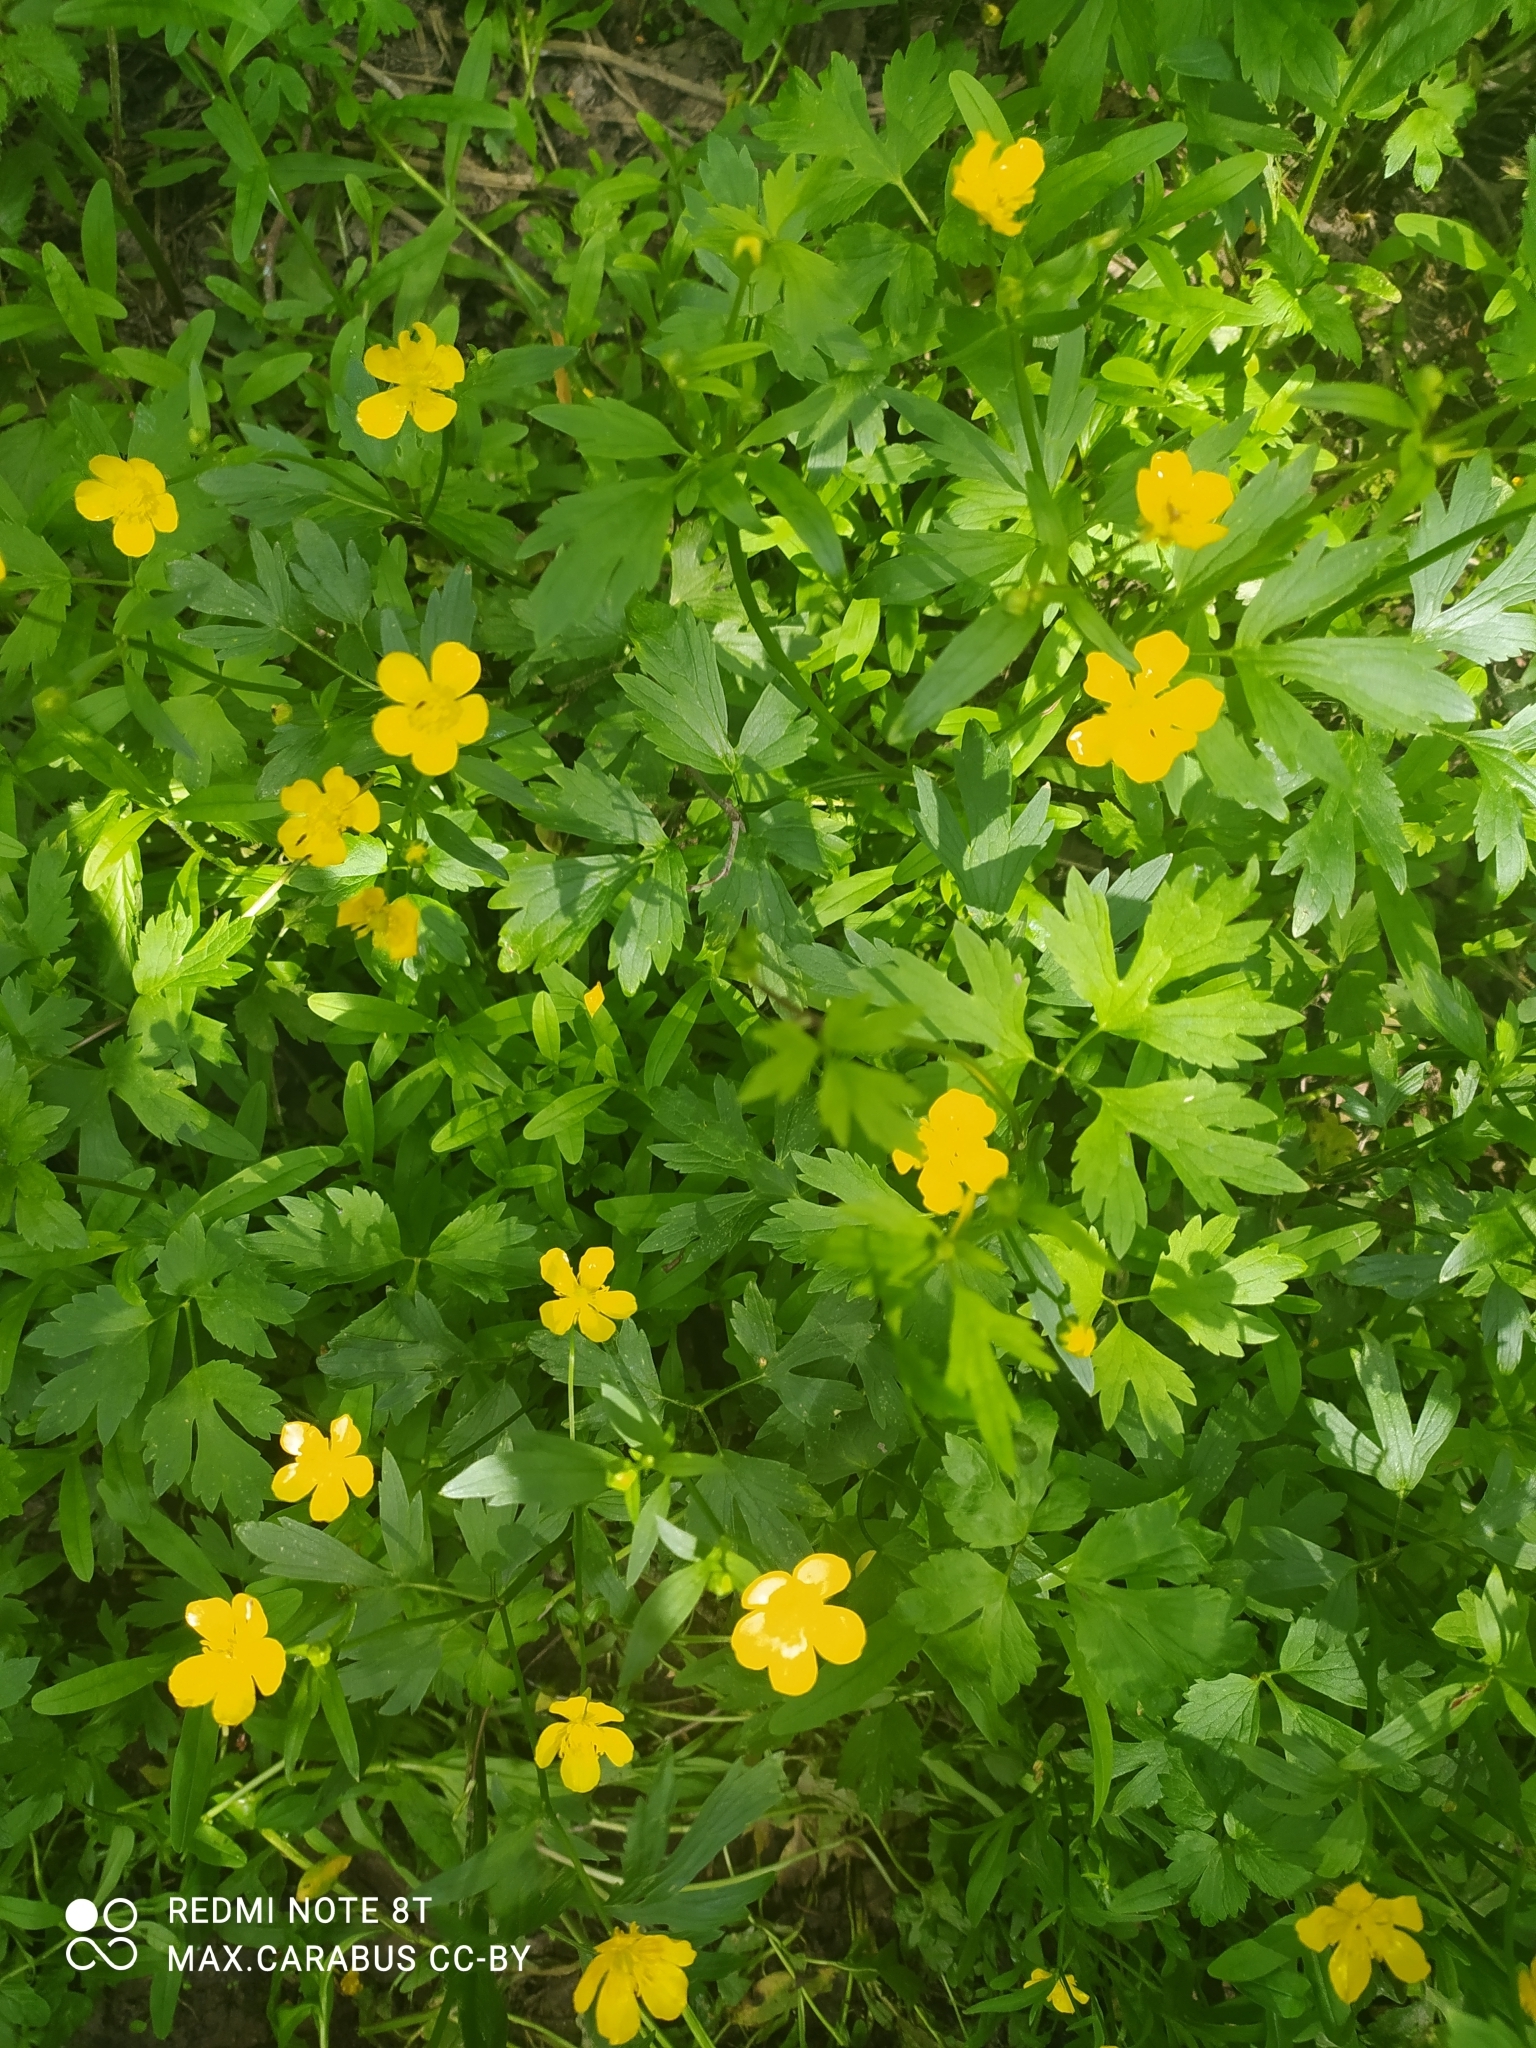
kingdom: Plantae
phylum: Tracheophyta
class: Magnoliopsida
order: Ranunculales
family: Ranunculaceae
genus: Ranunculus
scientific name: Ranunculus repens
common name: Creeping buttercup
